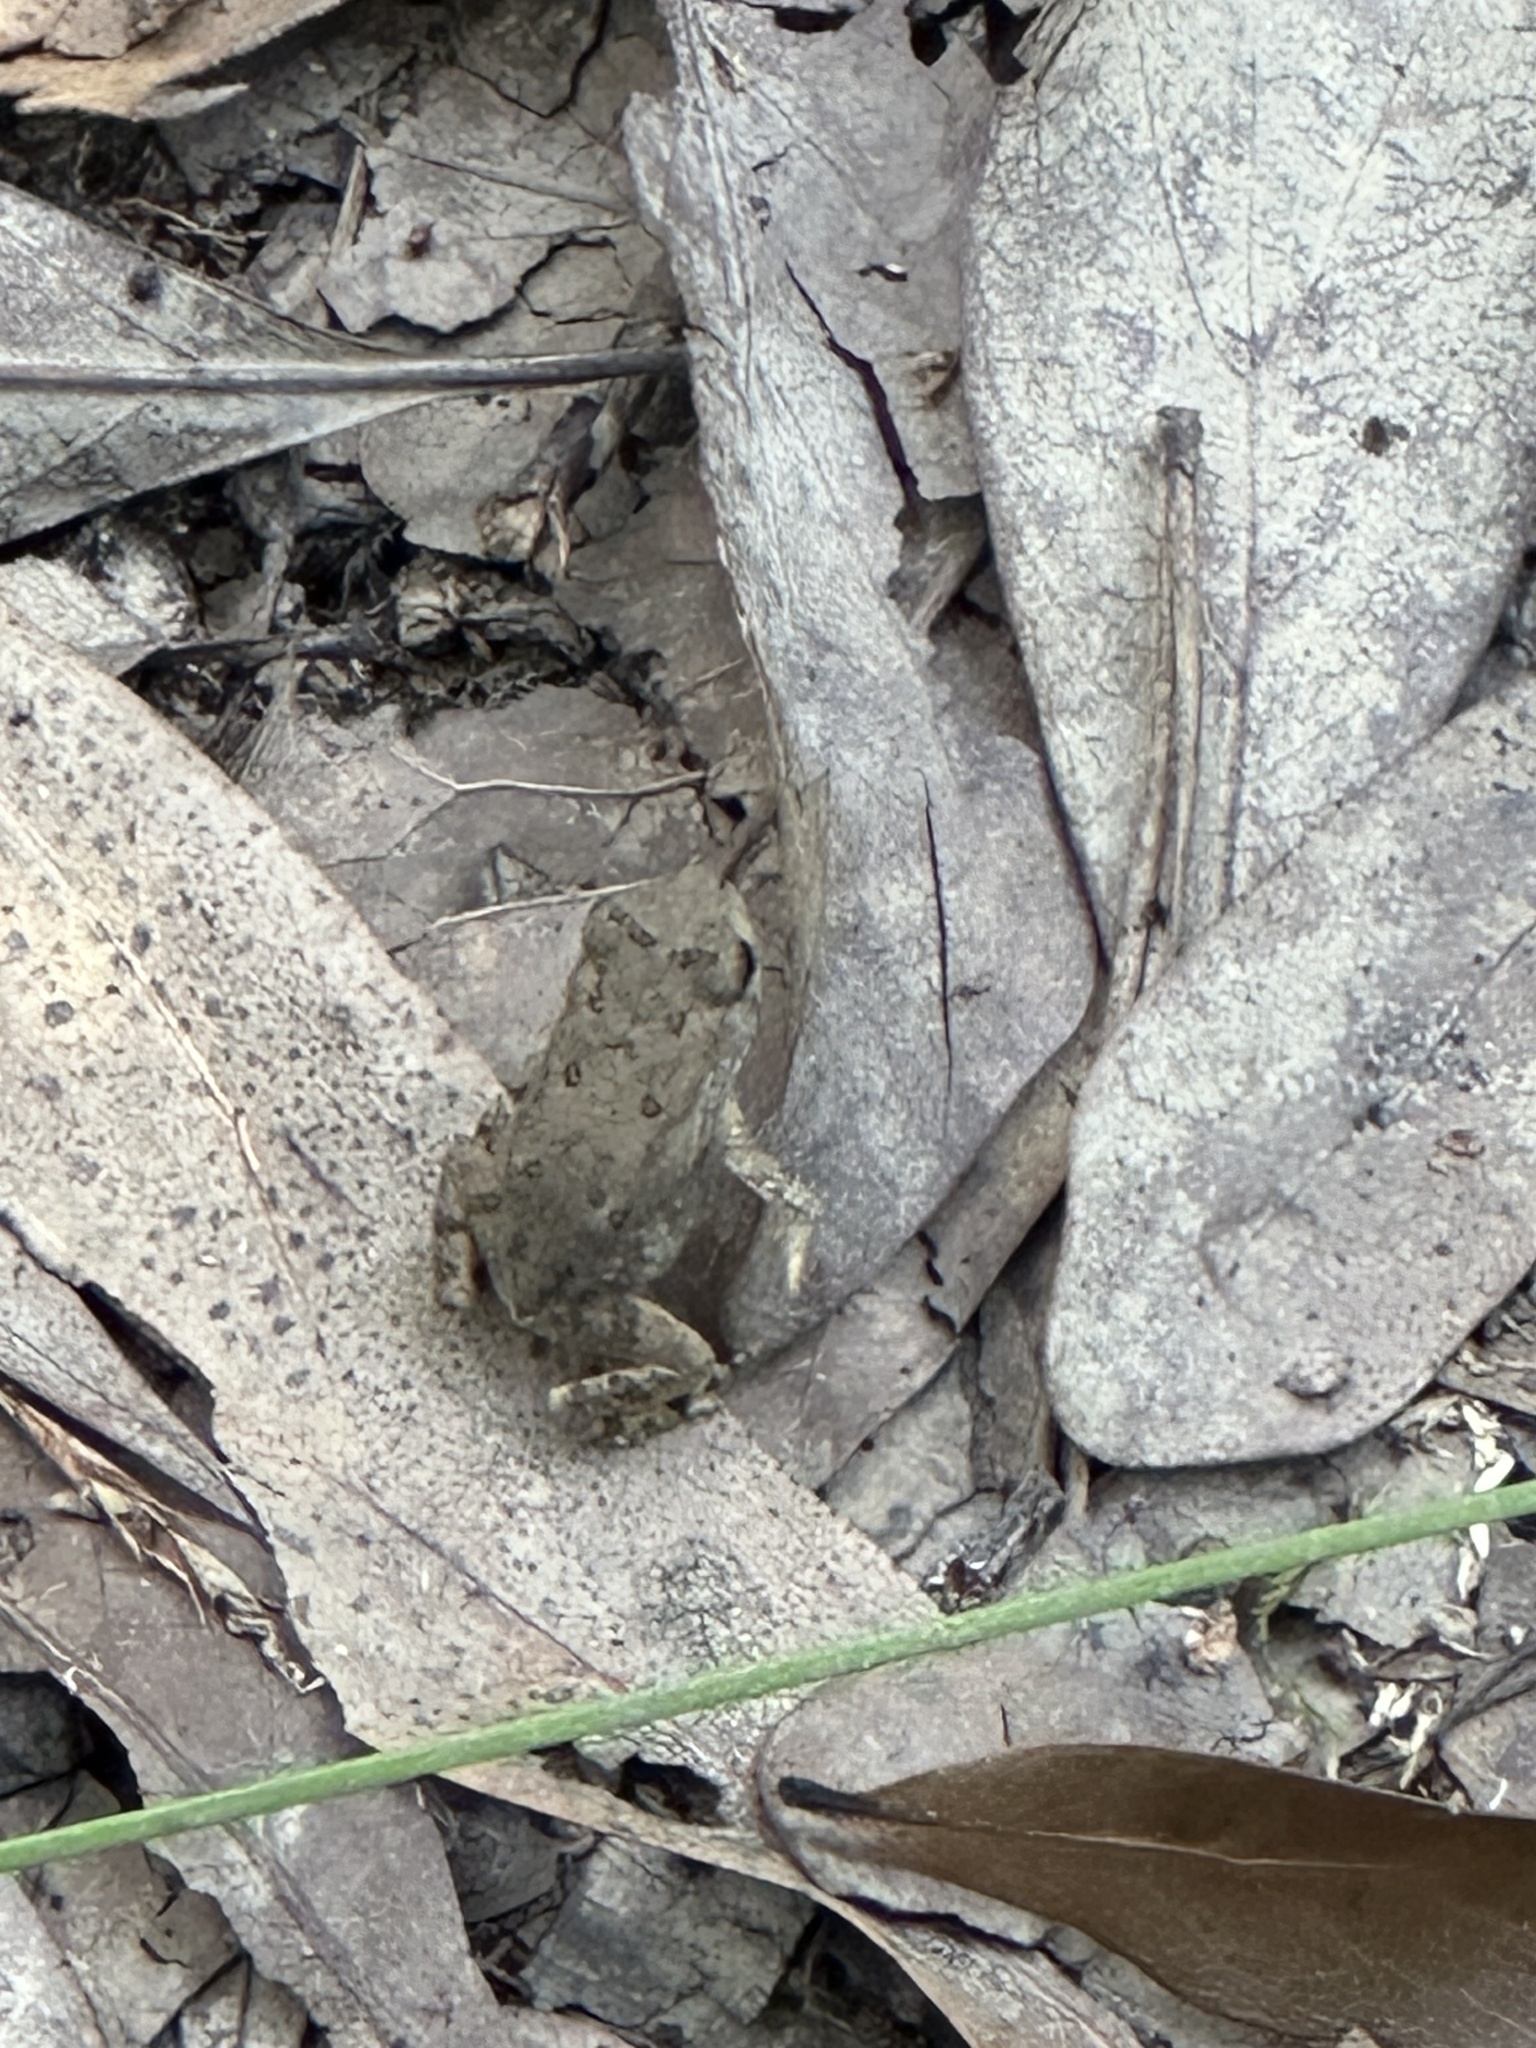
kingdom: Animalia
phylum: Chordata
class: Amphibia
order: Anura
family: Bufonidae
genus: Anaxyrus
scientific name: Anaxyrus fowleri
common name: Fowler's toad
